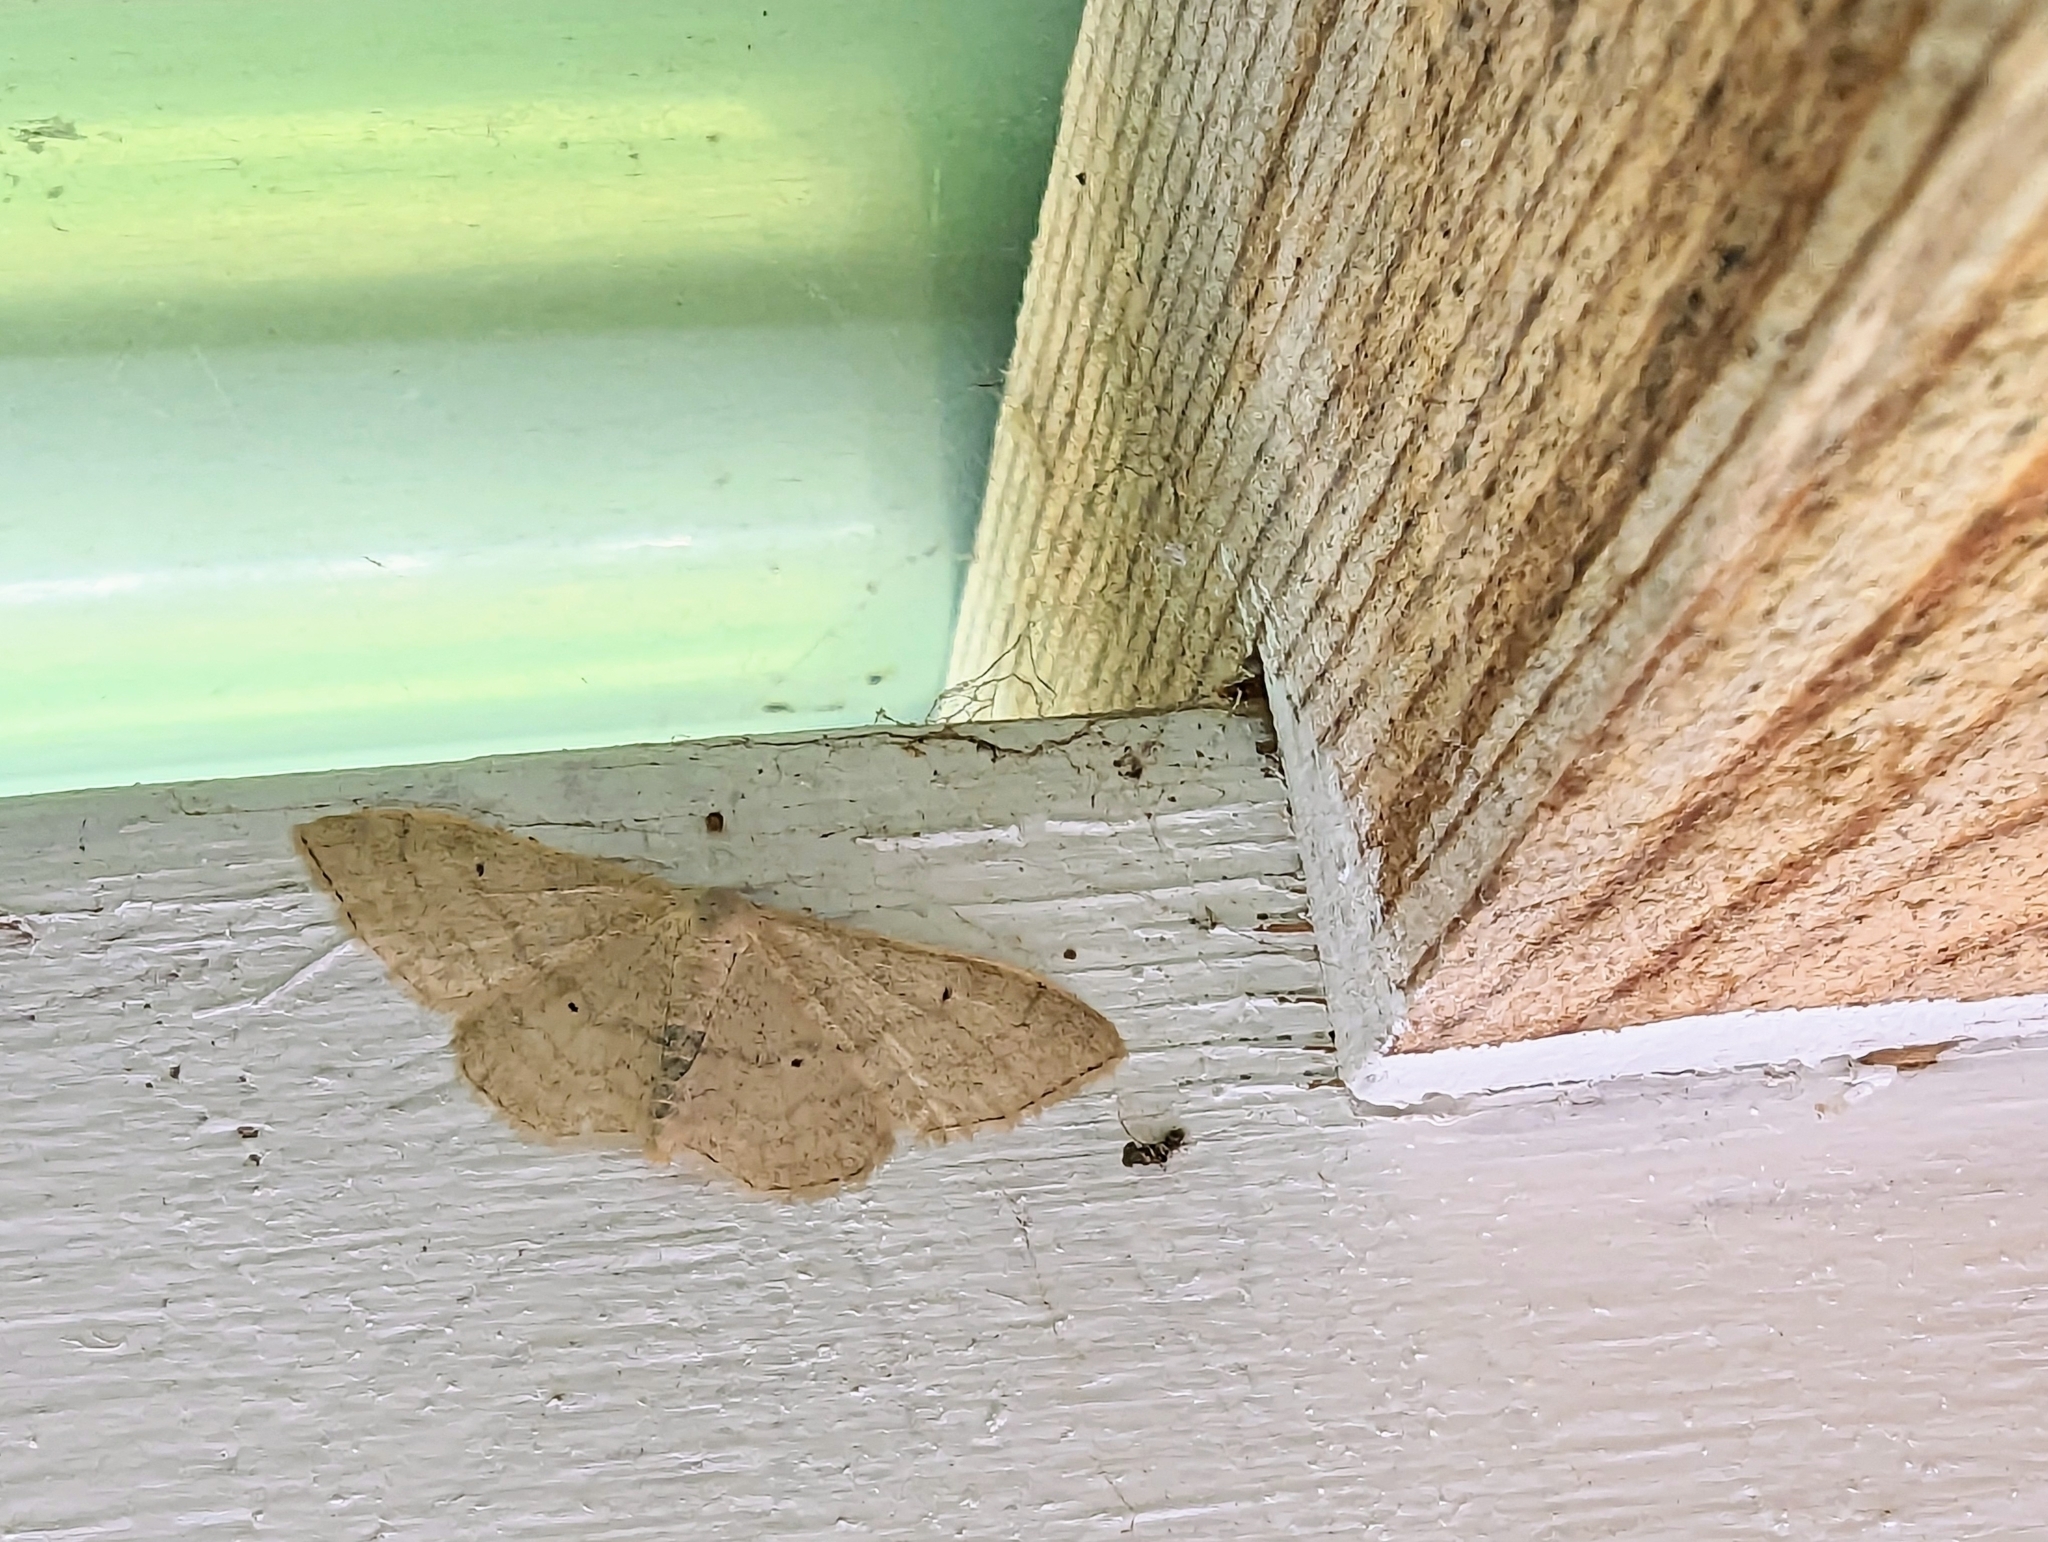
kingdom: Animalia
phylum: Arthropoda
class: Insecta
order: Lepidoptera
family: Geometridae
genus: Idaea
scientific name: Idaea straminata
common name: Plain wave
